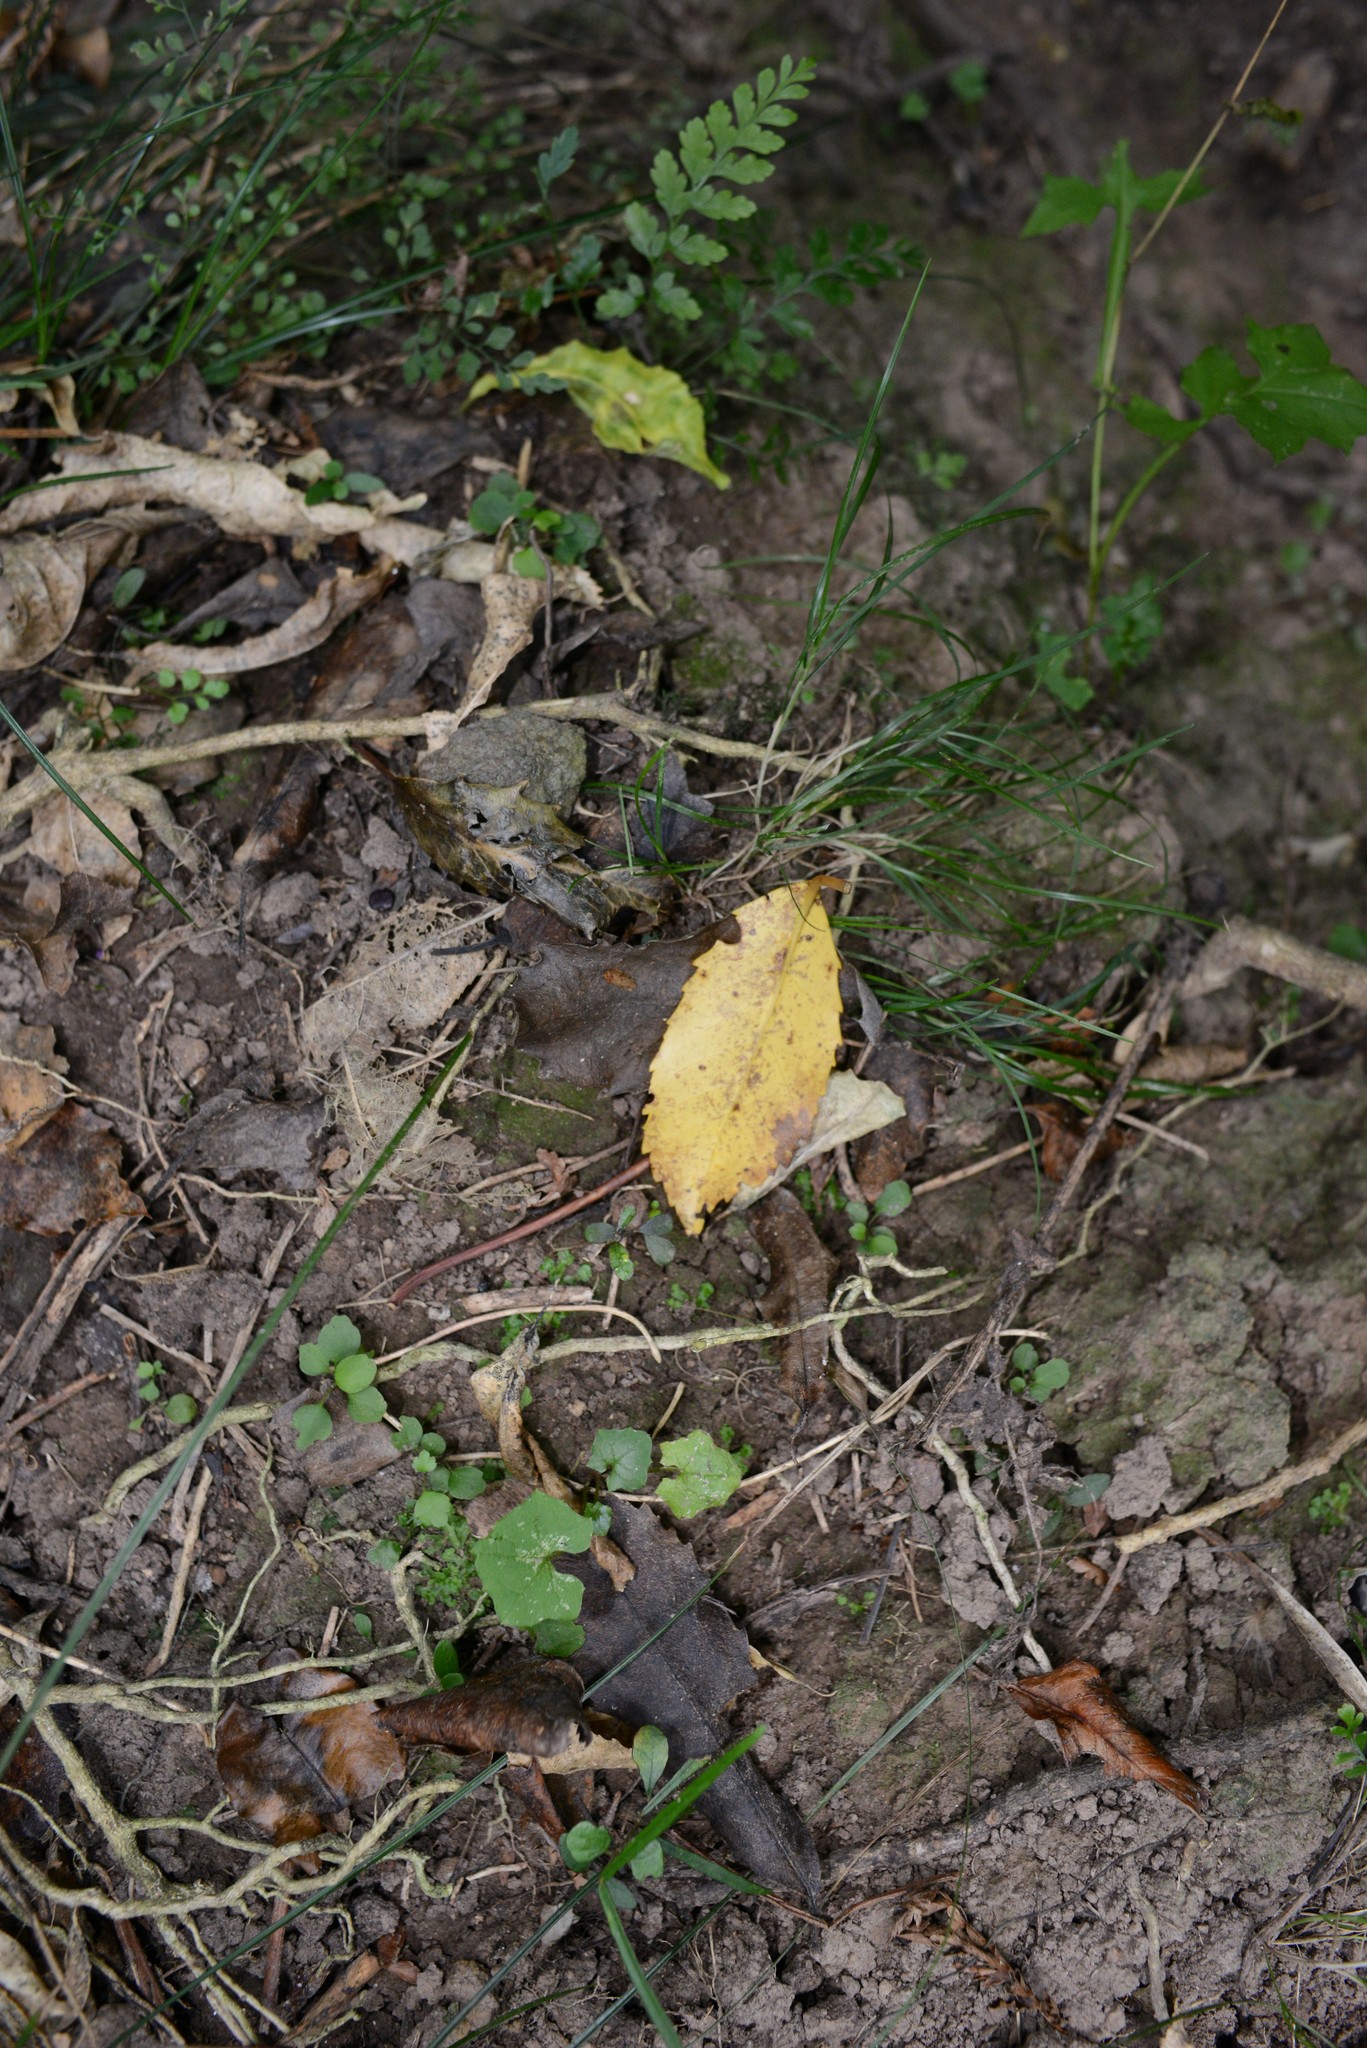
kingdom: Plantae
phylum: Tracheophyta
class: Magnoliopsida
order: Asterales
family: Asteraceae
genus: Mycelis
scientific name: Mycelis muralis
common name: Wall lettuce
